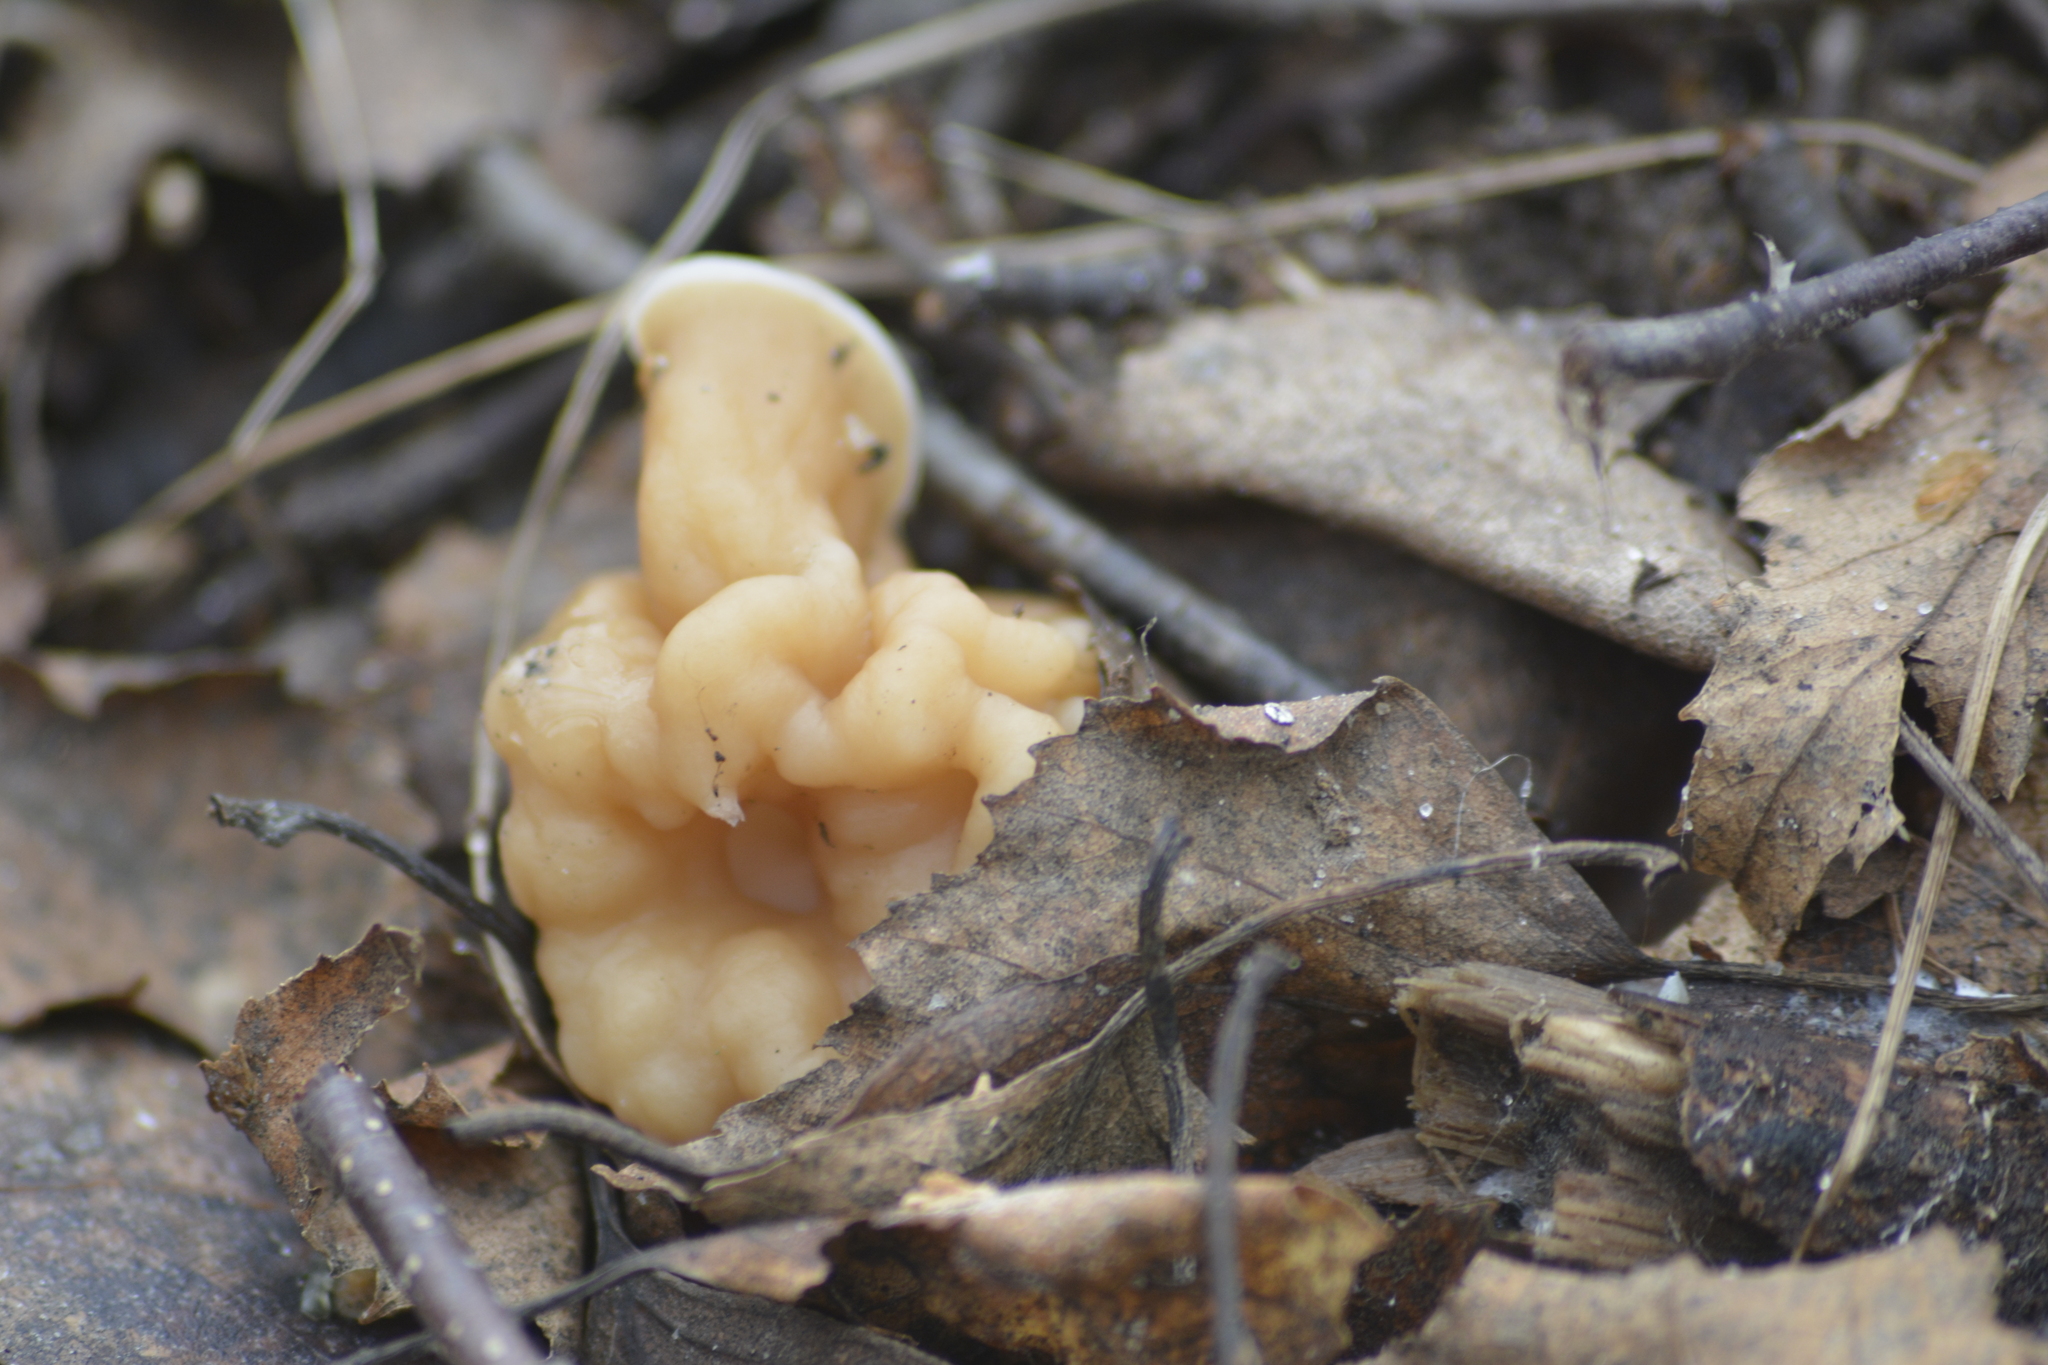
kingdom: Fungi
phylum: Ascomycota
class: Pezizomycetes
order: Pezizales
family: Discinaceae
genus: Gyromitra
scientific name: Gyromitra gigas
